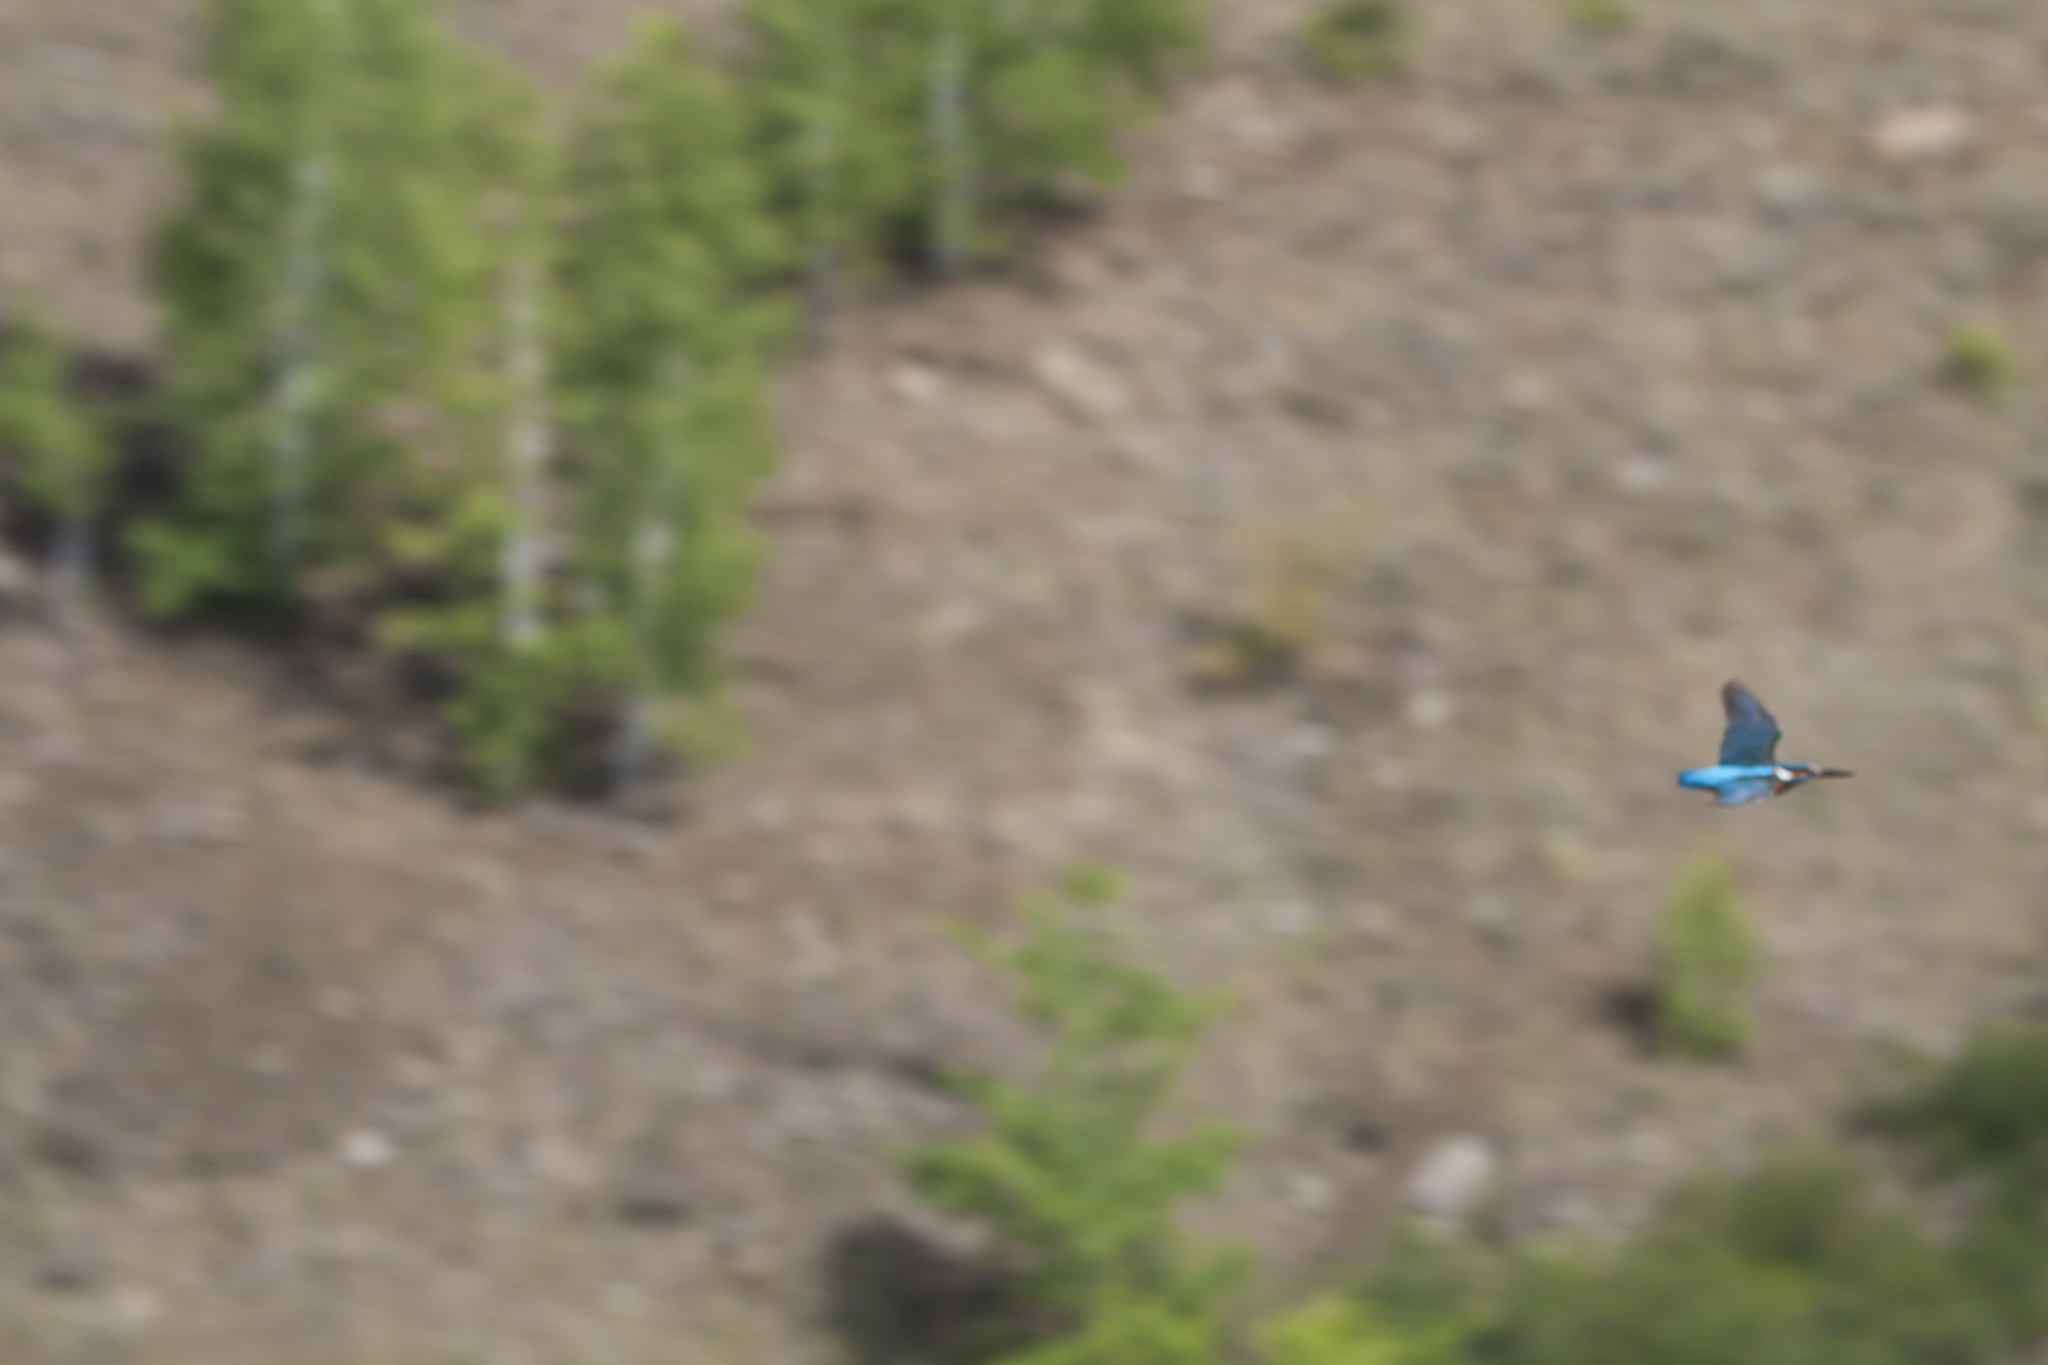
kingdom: Animalia
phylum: Chordata
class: Aves
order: Coraciiformes
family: Alcedinidae
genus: Alcedo
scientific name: Alcedo atthis
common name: Common kingfisher
